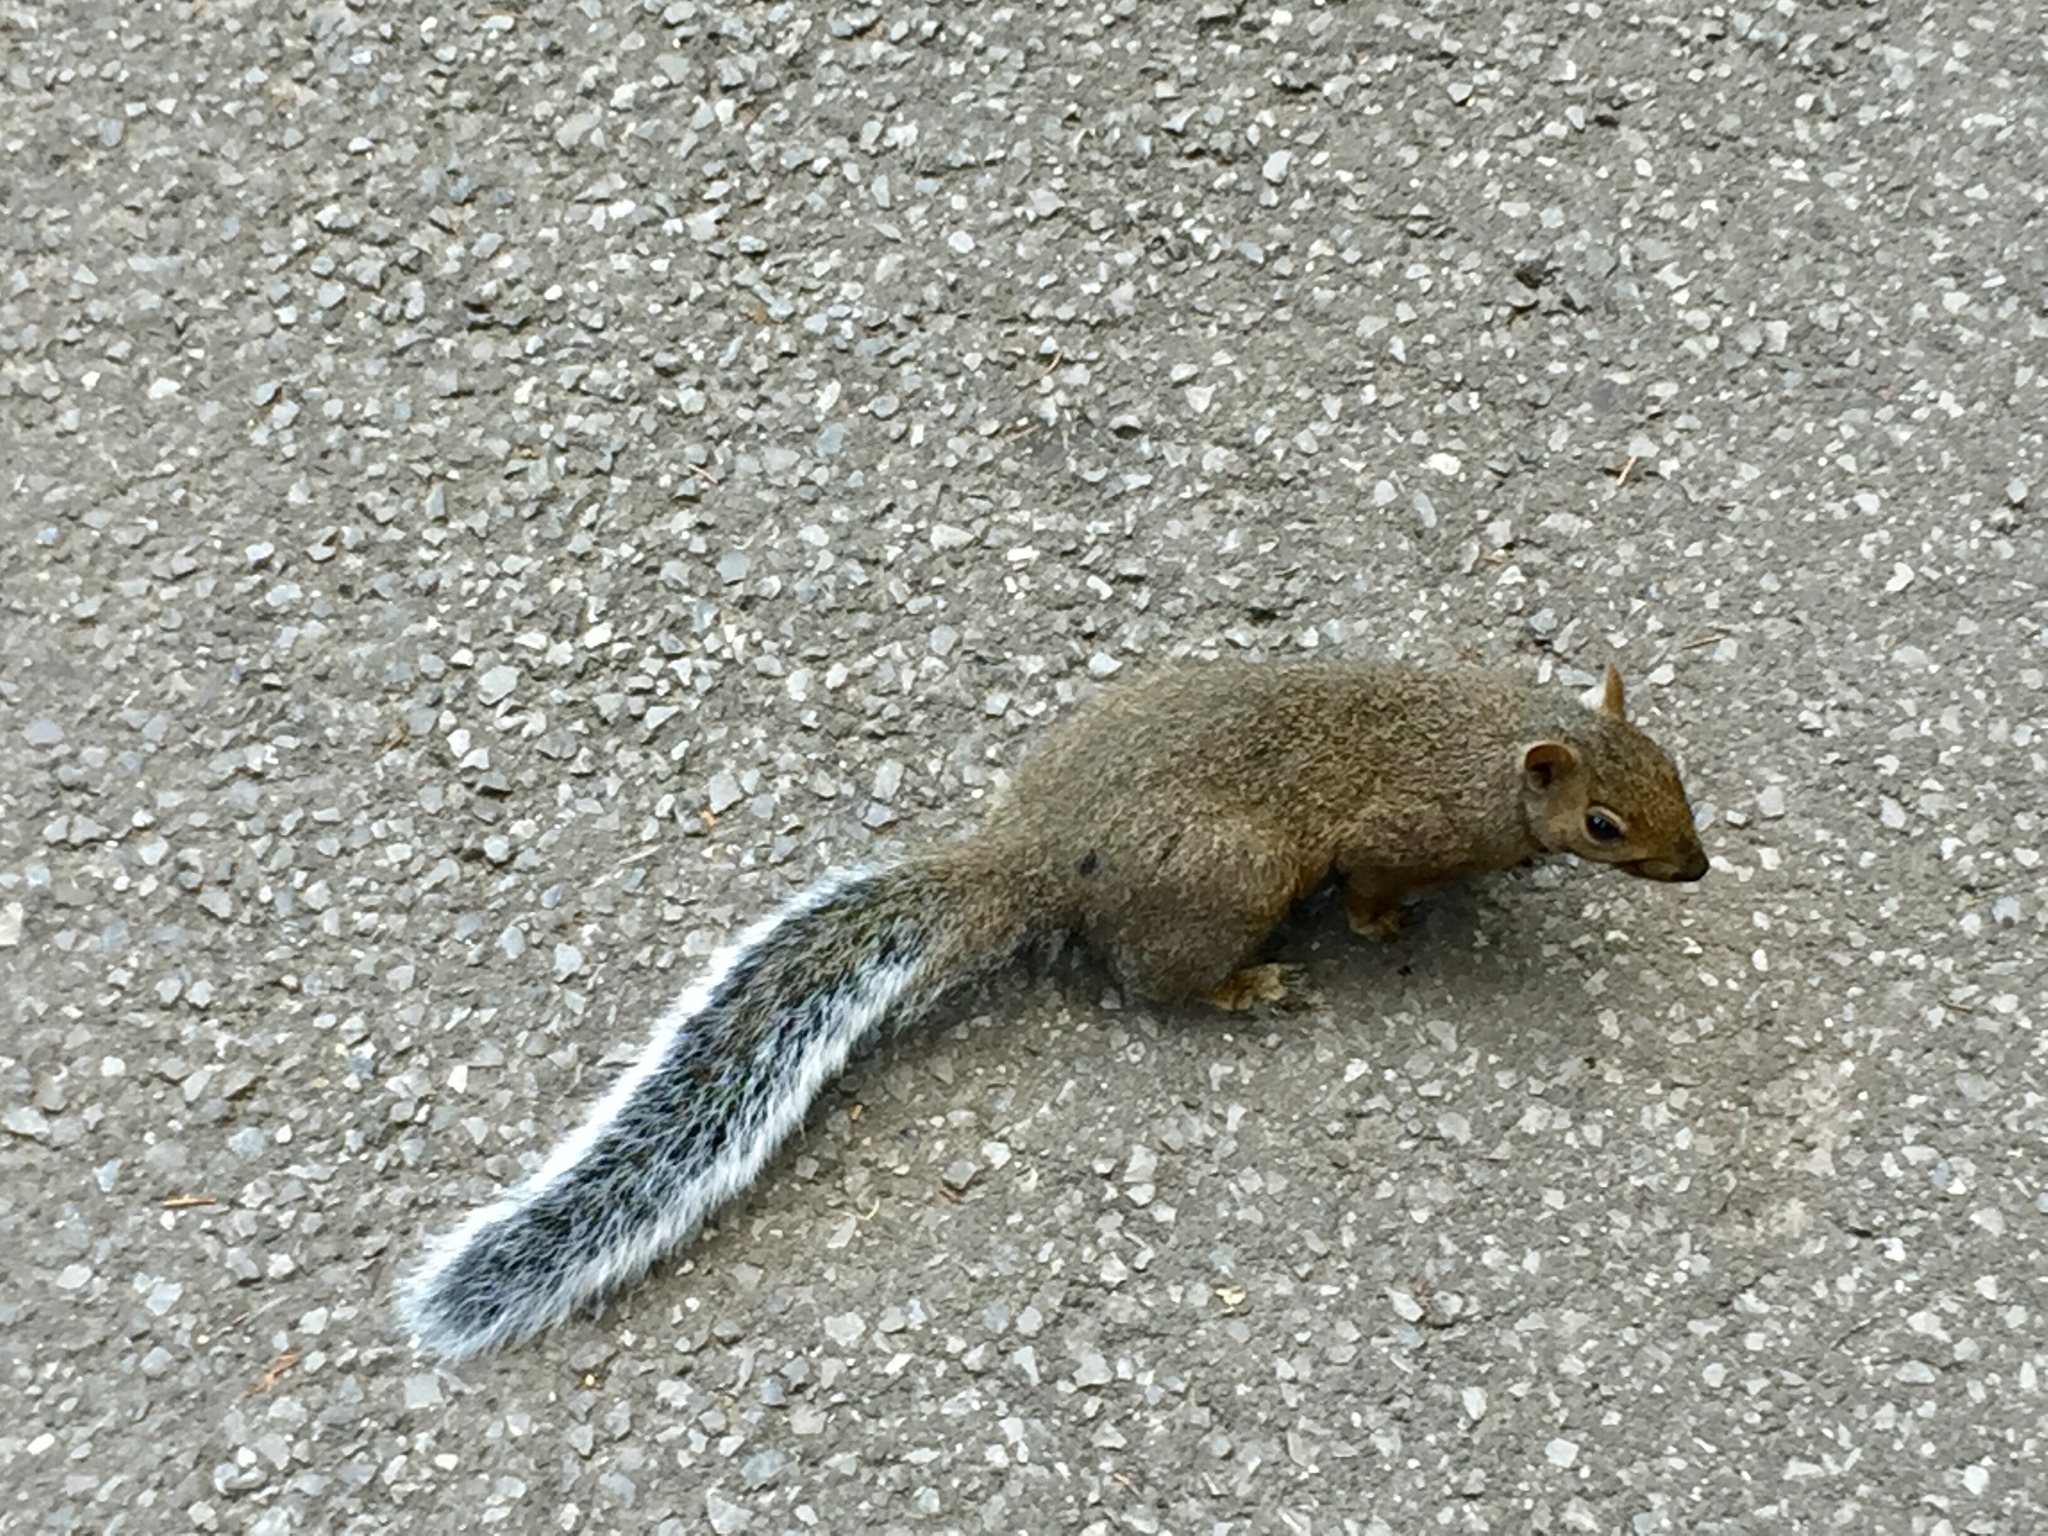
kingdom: Animalia
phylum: Chordata
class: Mammalia
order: Rodentia
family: Sciuridae
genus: Sciurus
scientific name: Sciurus carolinensis
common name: Eastern gray squirrel
